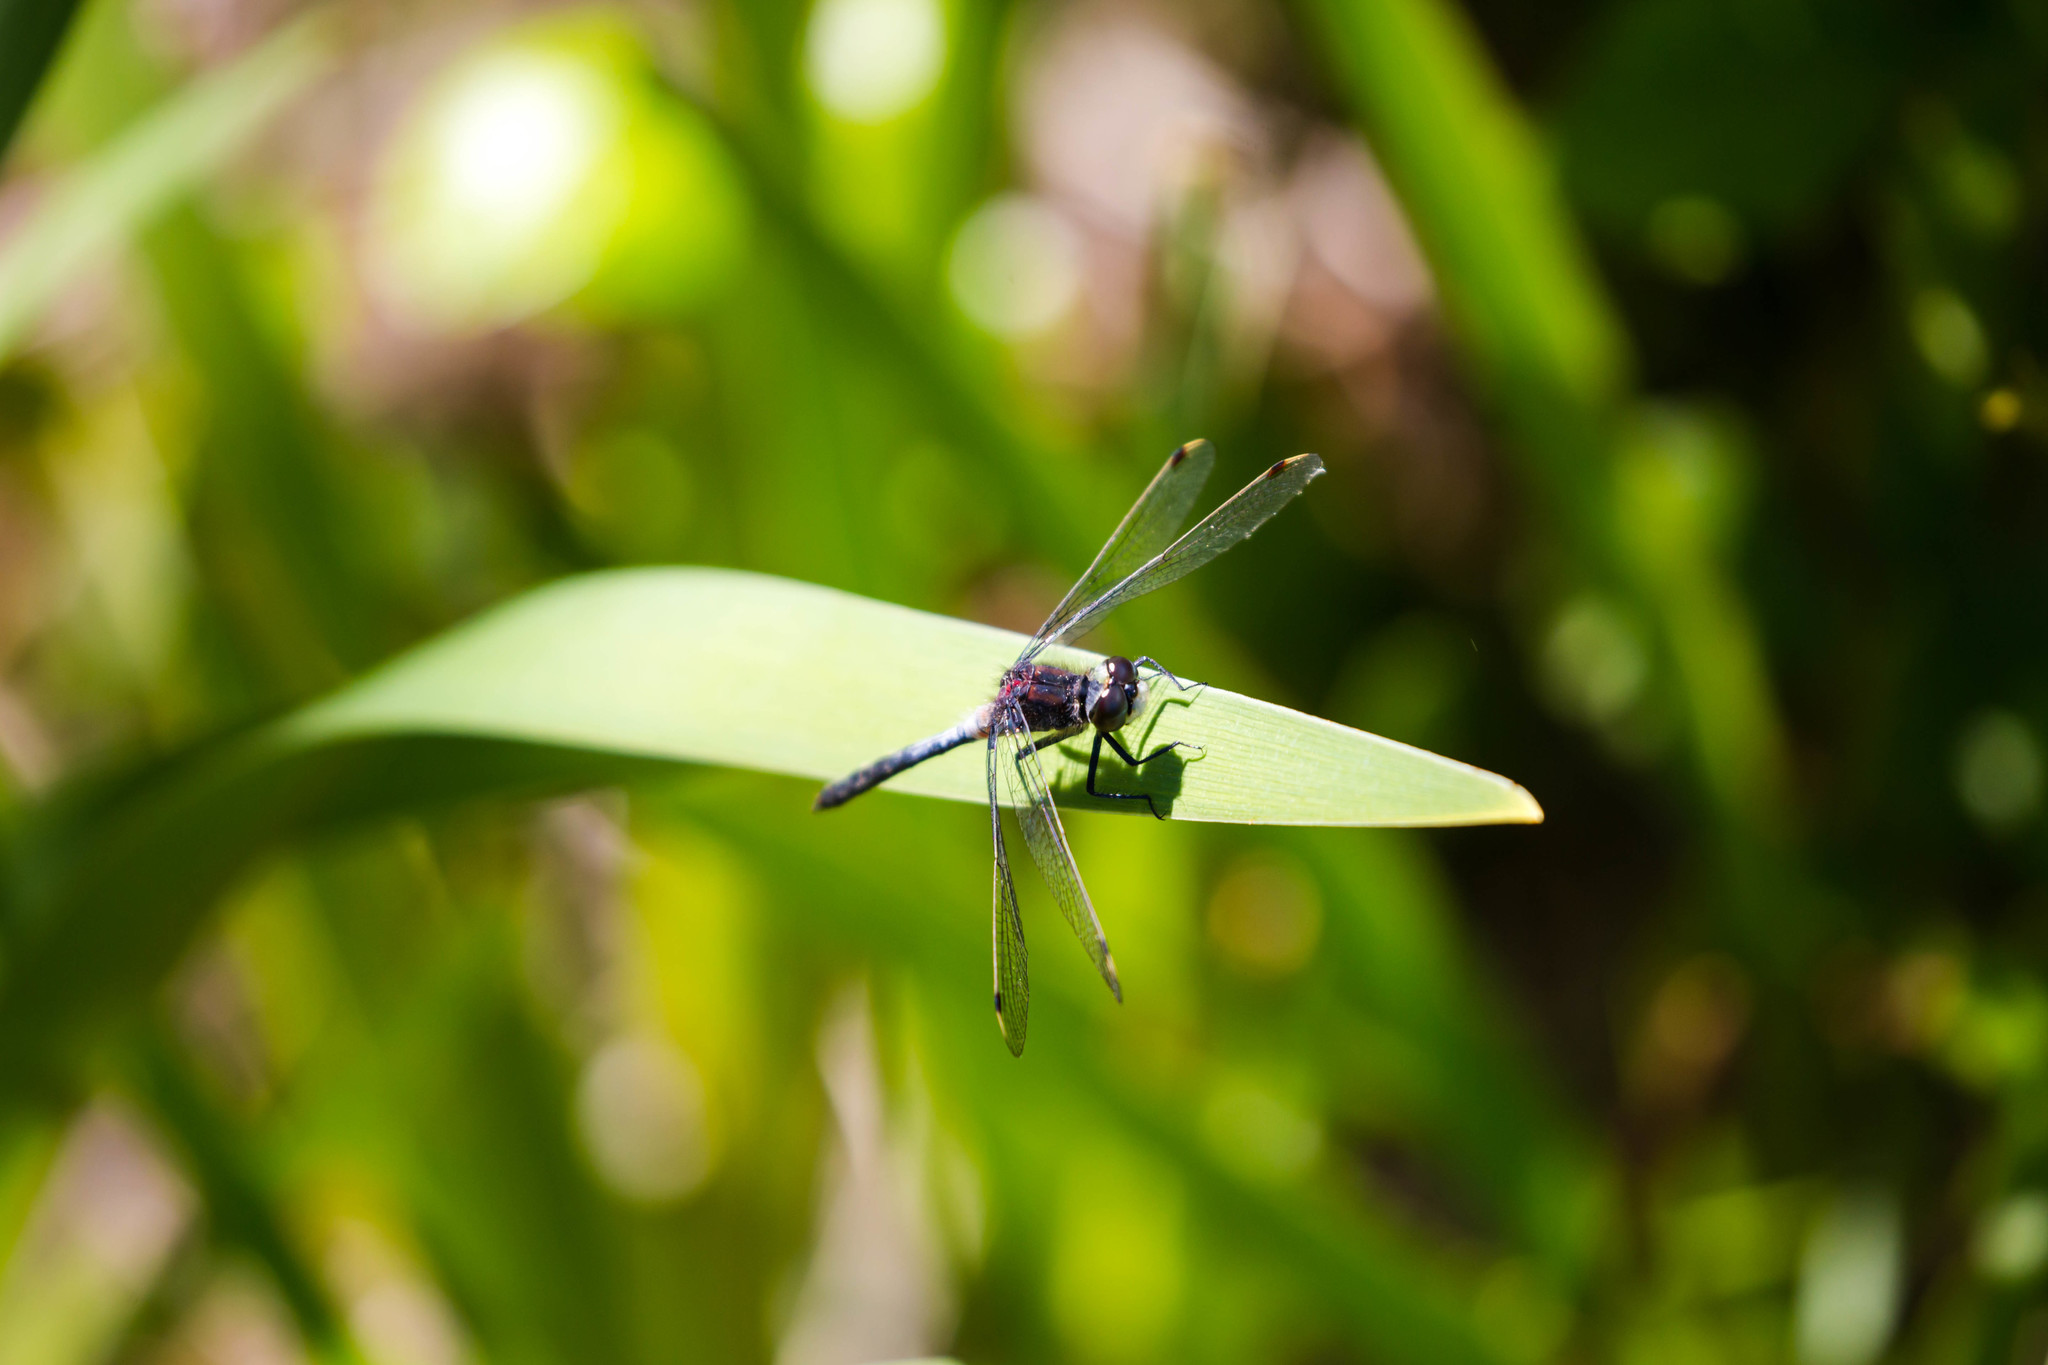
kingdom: Animalia
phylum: Arthropoda
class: Insecta
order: Odonata
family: Libellulidae
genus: Leucorrhinia
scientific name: Leucorrhinia proxima
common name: Belted whiteface
